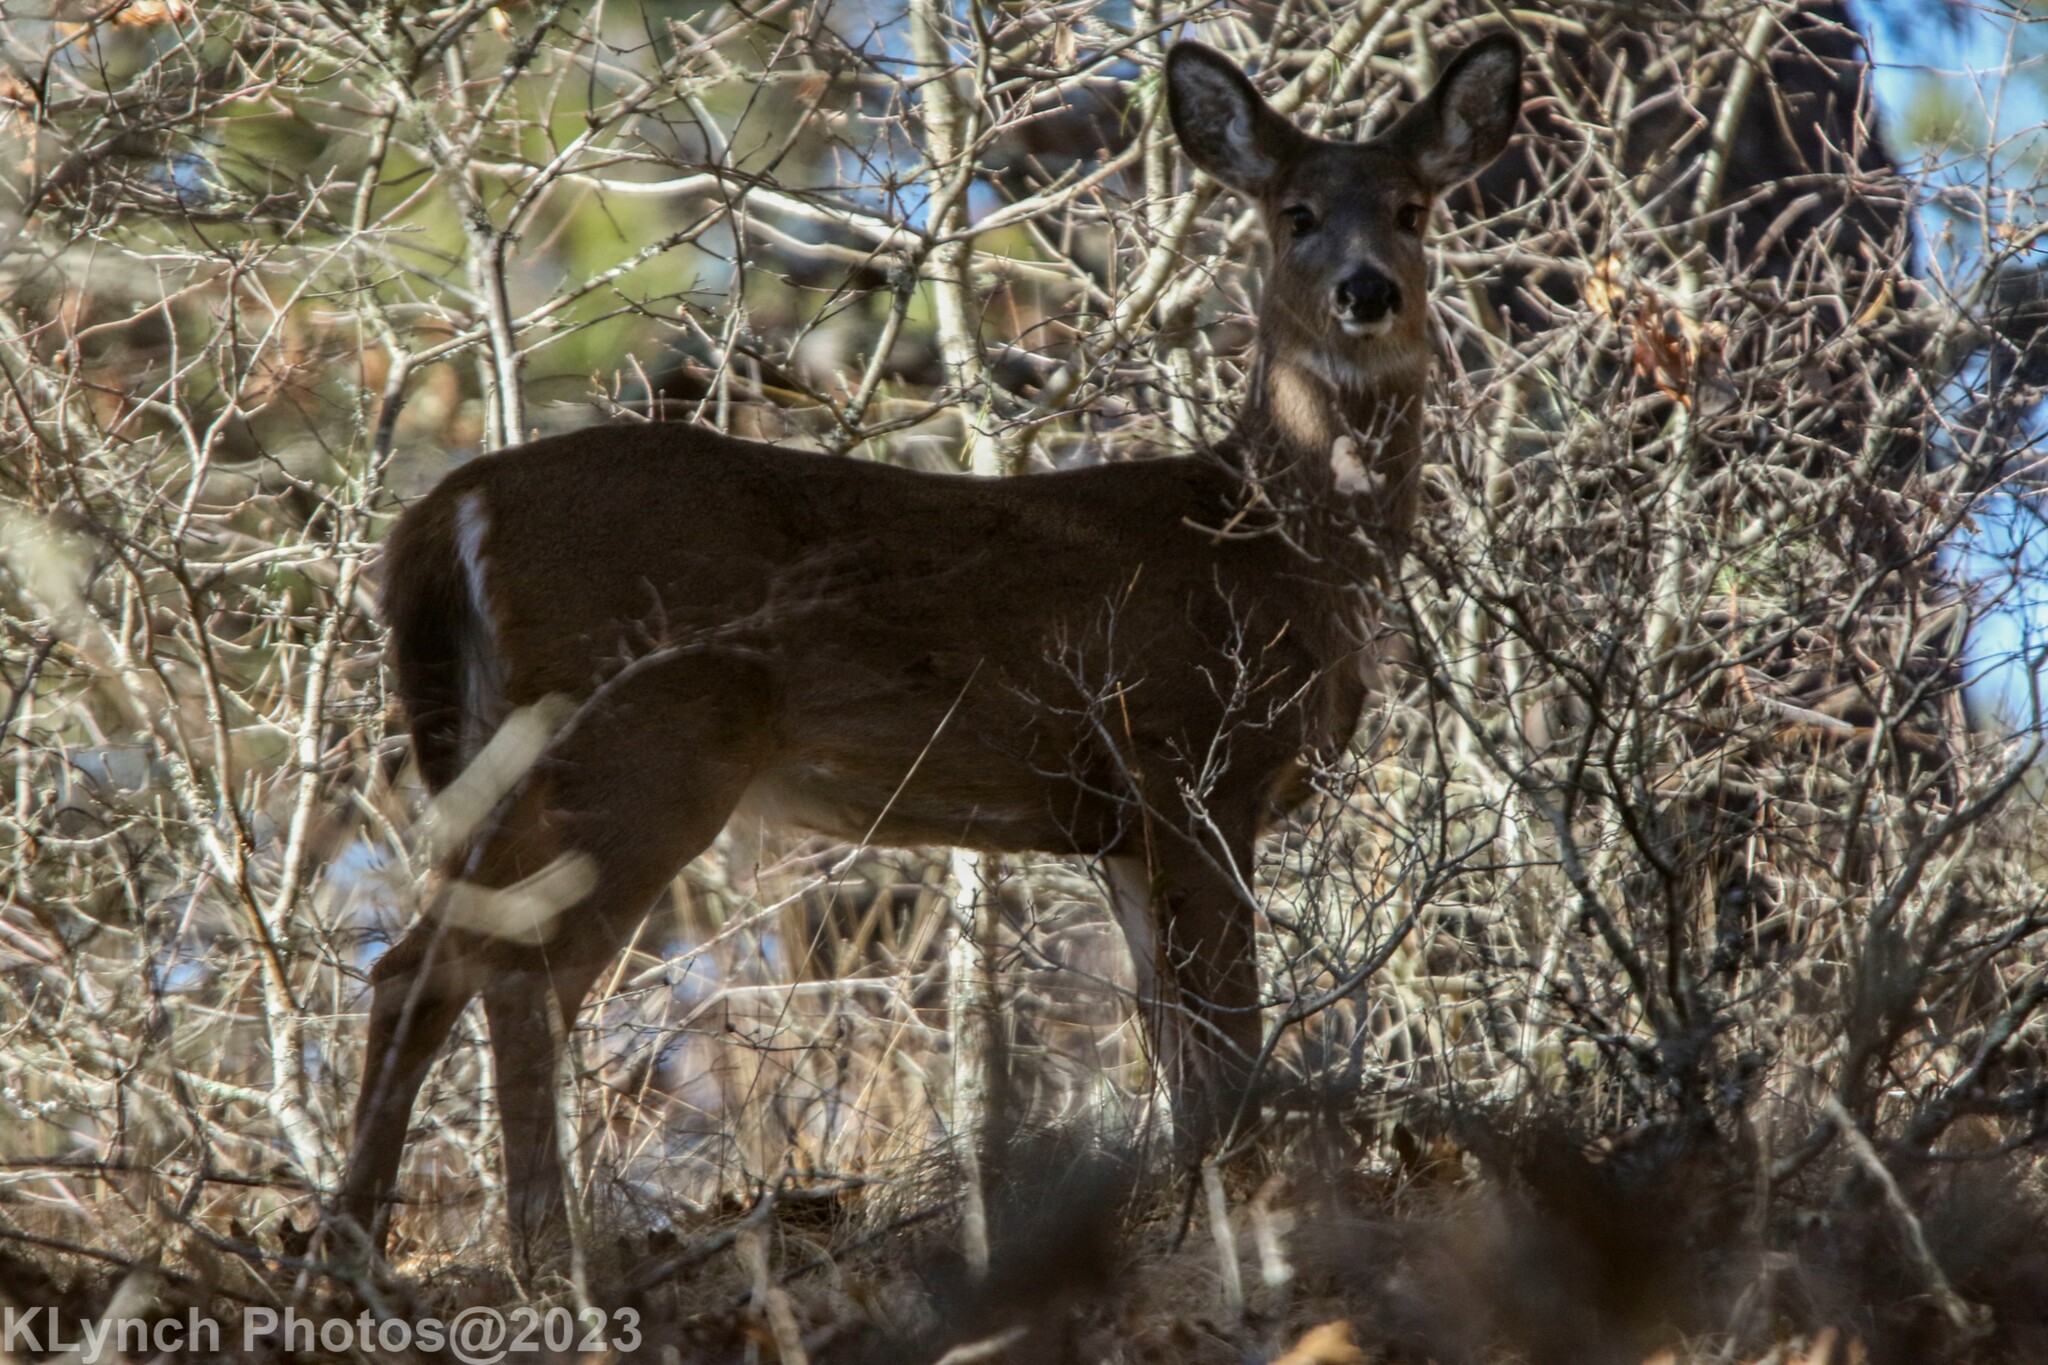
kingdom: Animalia
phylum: Chordata
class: Mammalia
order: Artiodactyla
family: Cervidae
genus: Odocoileus
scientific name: Odocoileus virginianus
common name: White-tailed deer
